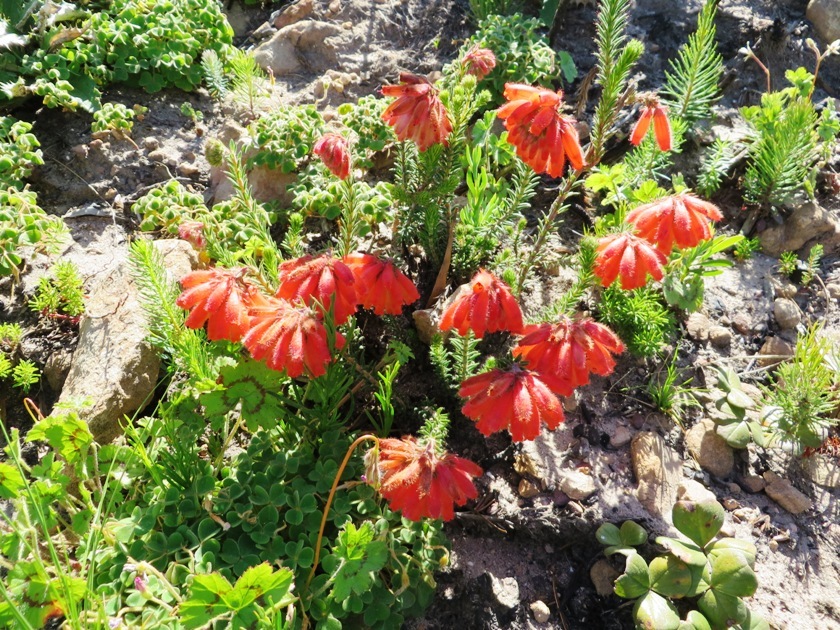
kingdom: Plantae
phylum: Tracheophyta
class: Magnoliopsida
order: Ericales
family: Ericaceae
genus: Erica
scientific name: Erica cerinthoides
